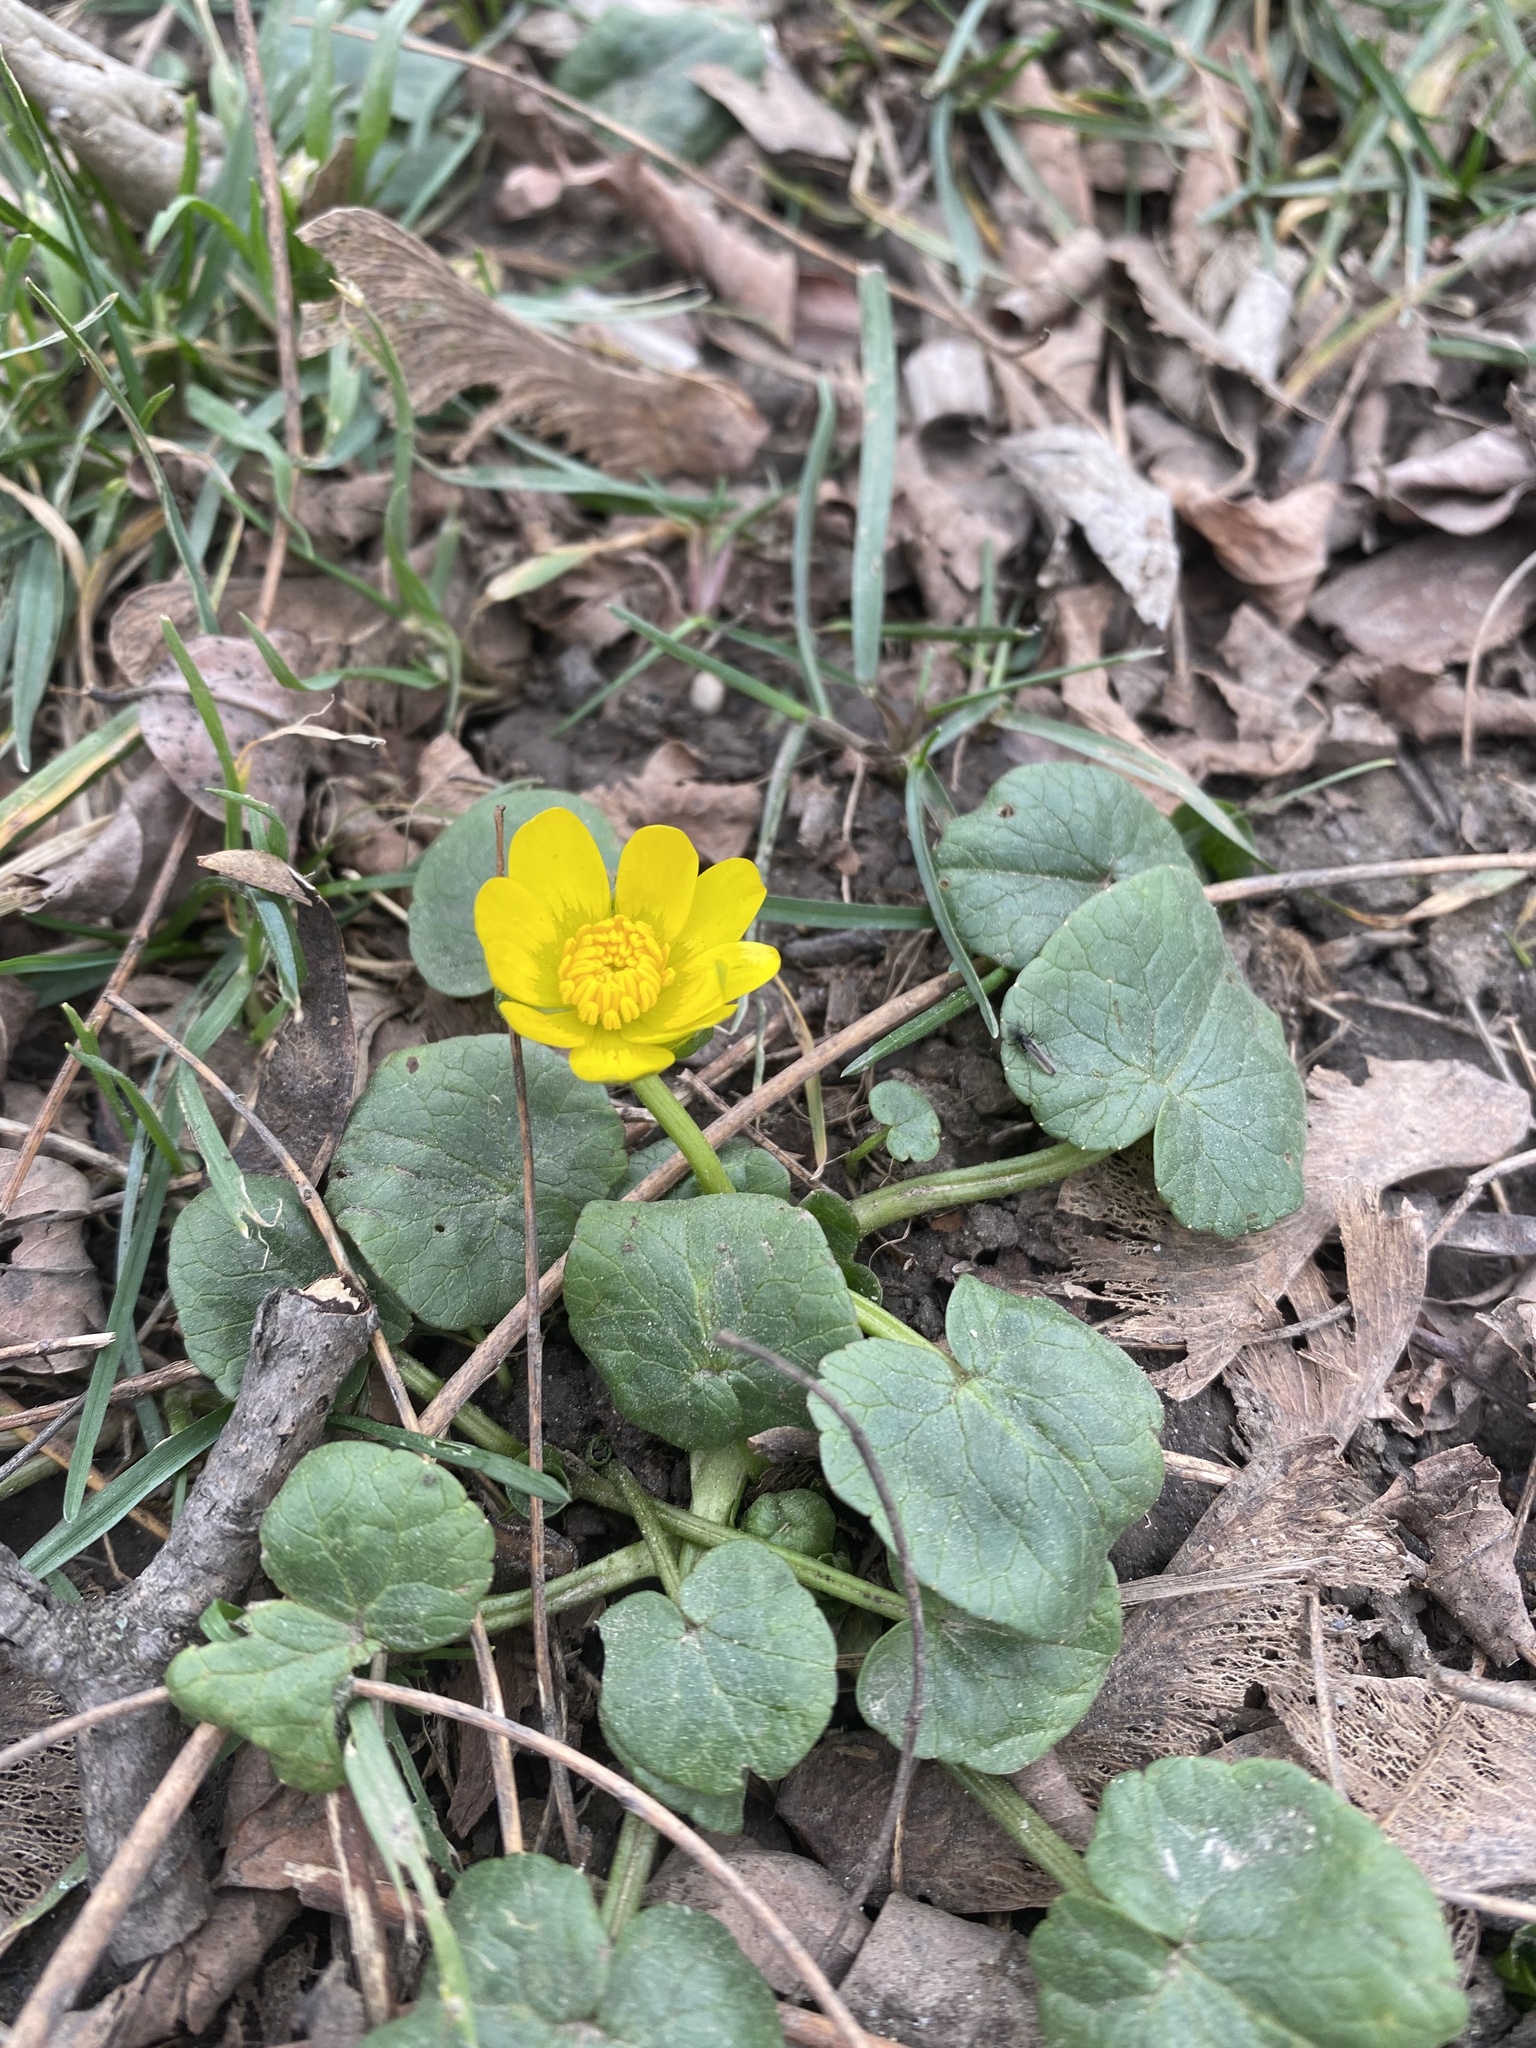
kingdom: Plantae
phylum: Tracheophyta
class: Magnoliopsida
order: Ranunculales
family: Ranunculaceae
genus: Ficaria
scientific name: Ficaria verna
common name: Lesser celandine
